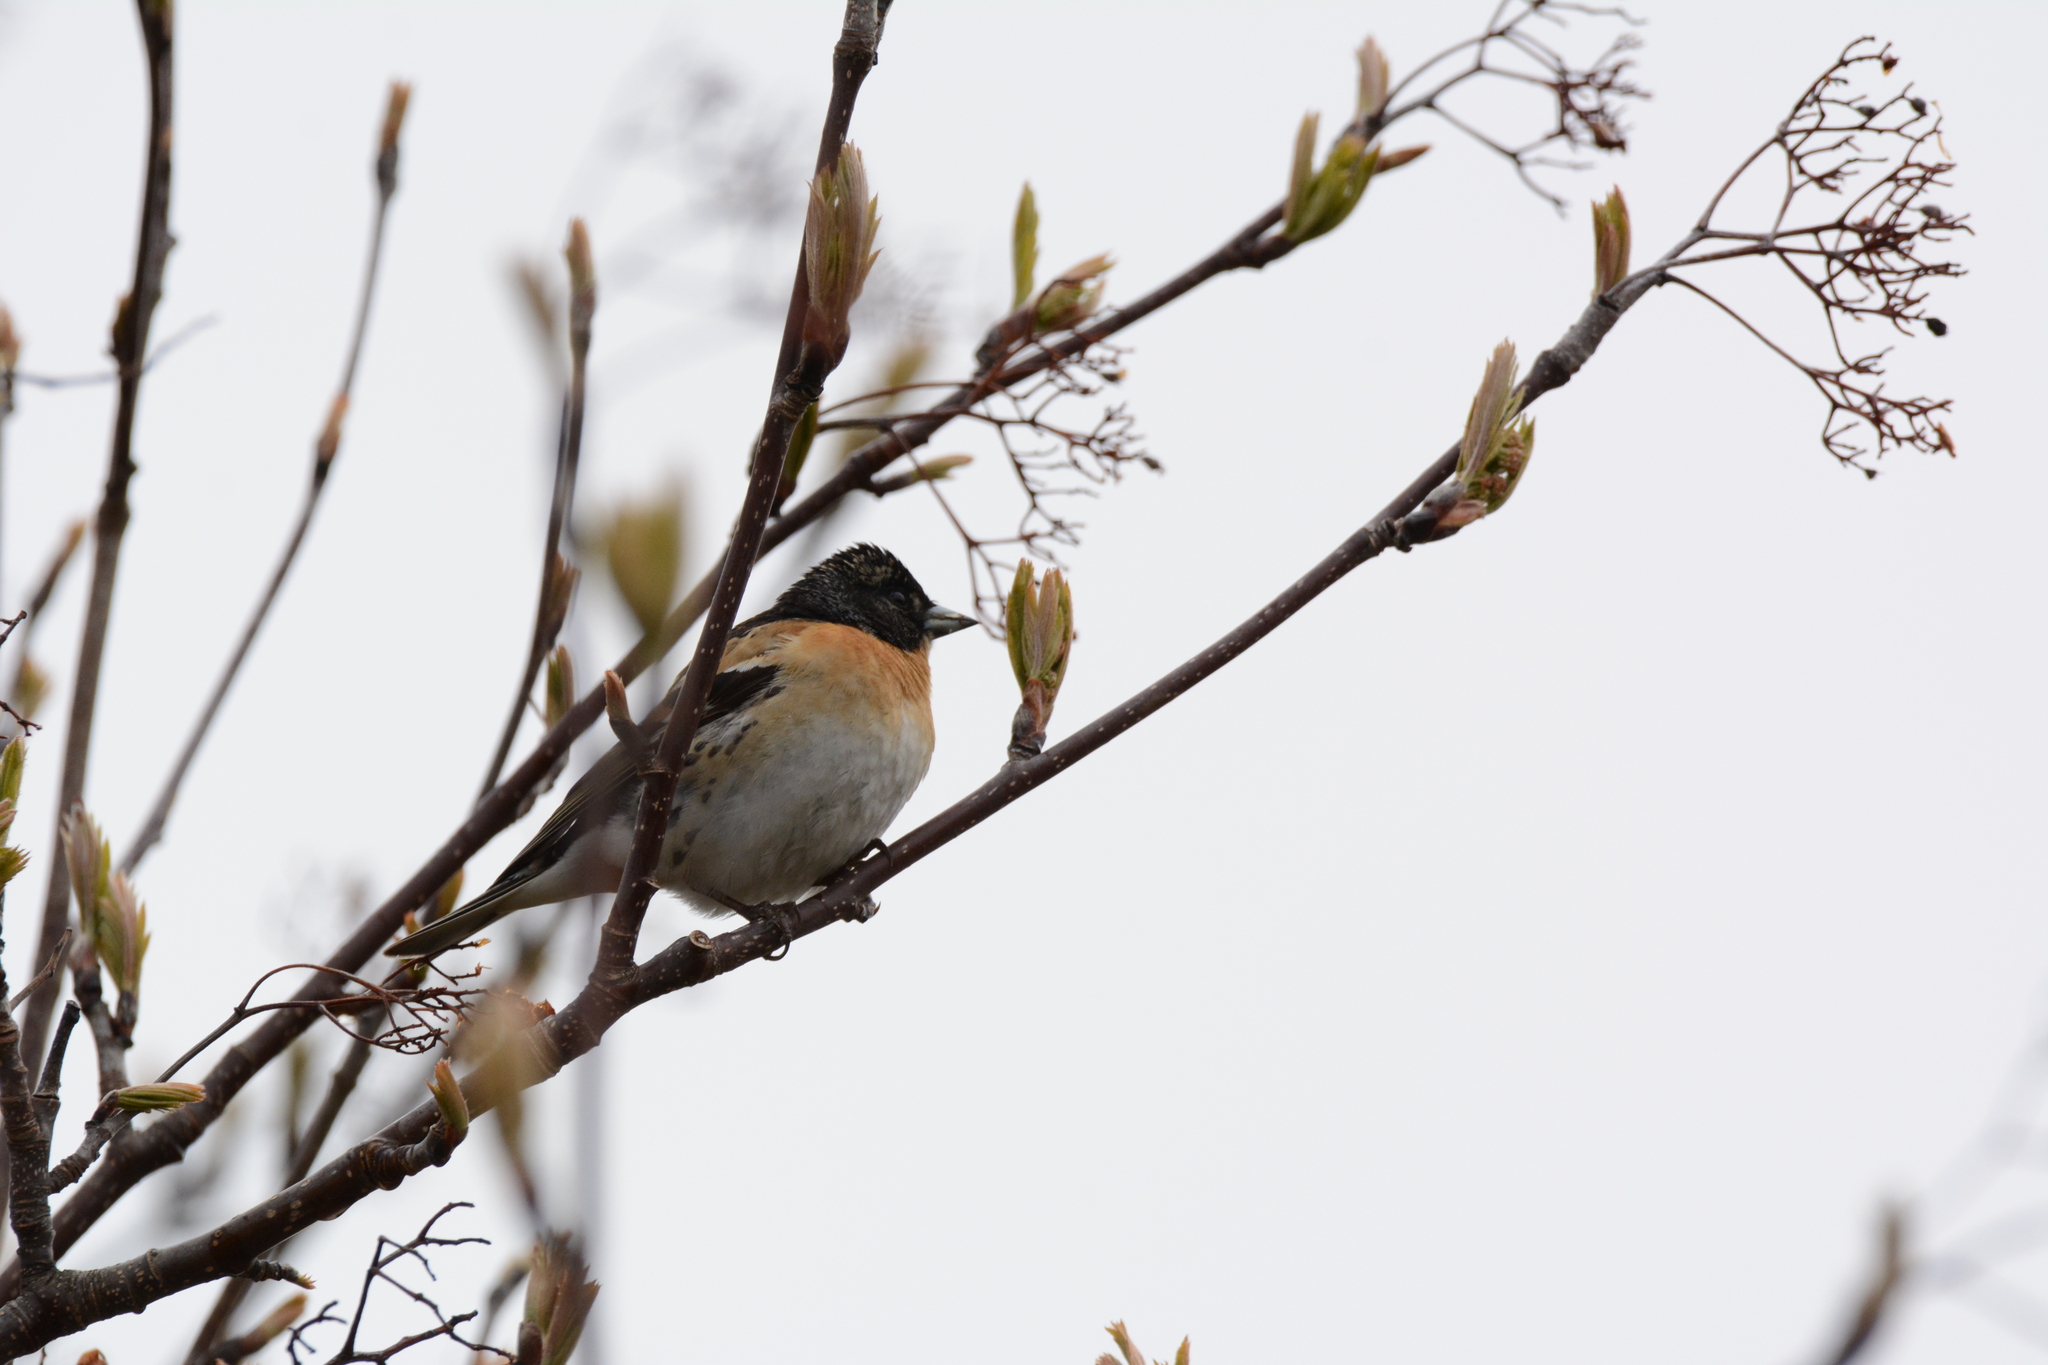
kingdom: Animalia
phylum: Chordata
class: Aves
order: Passeriformes
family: Fringillidae
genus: Fringilla
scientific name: Fringilla montifringilla
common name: Brambling
